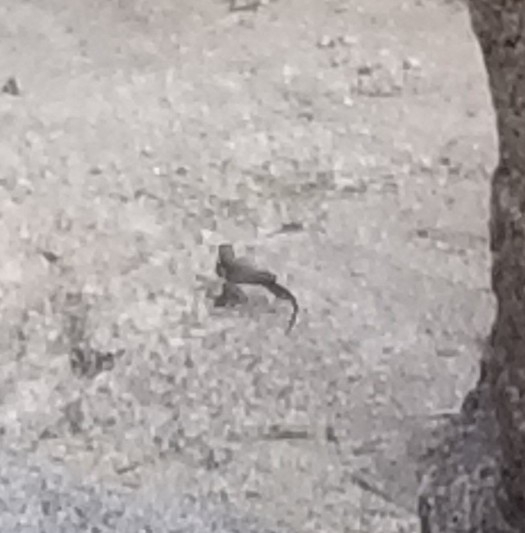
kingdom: Animalia
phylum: Chordata
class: Squamata
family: Phrynosomatidae
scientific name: Phrynosomatidae
